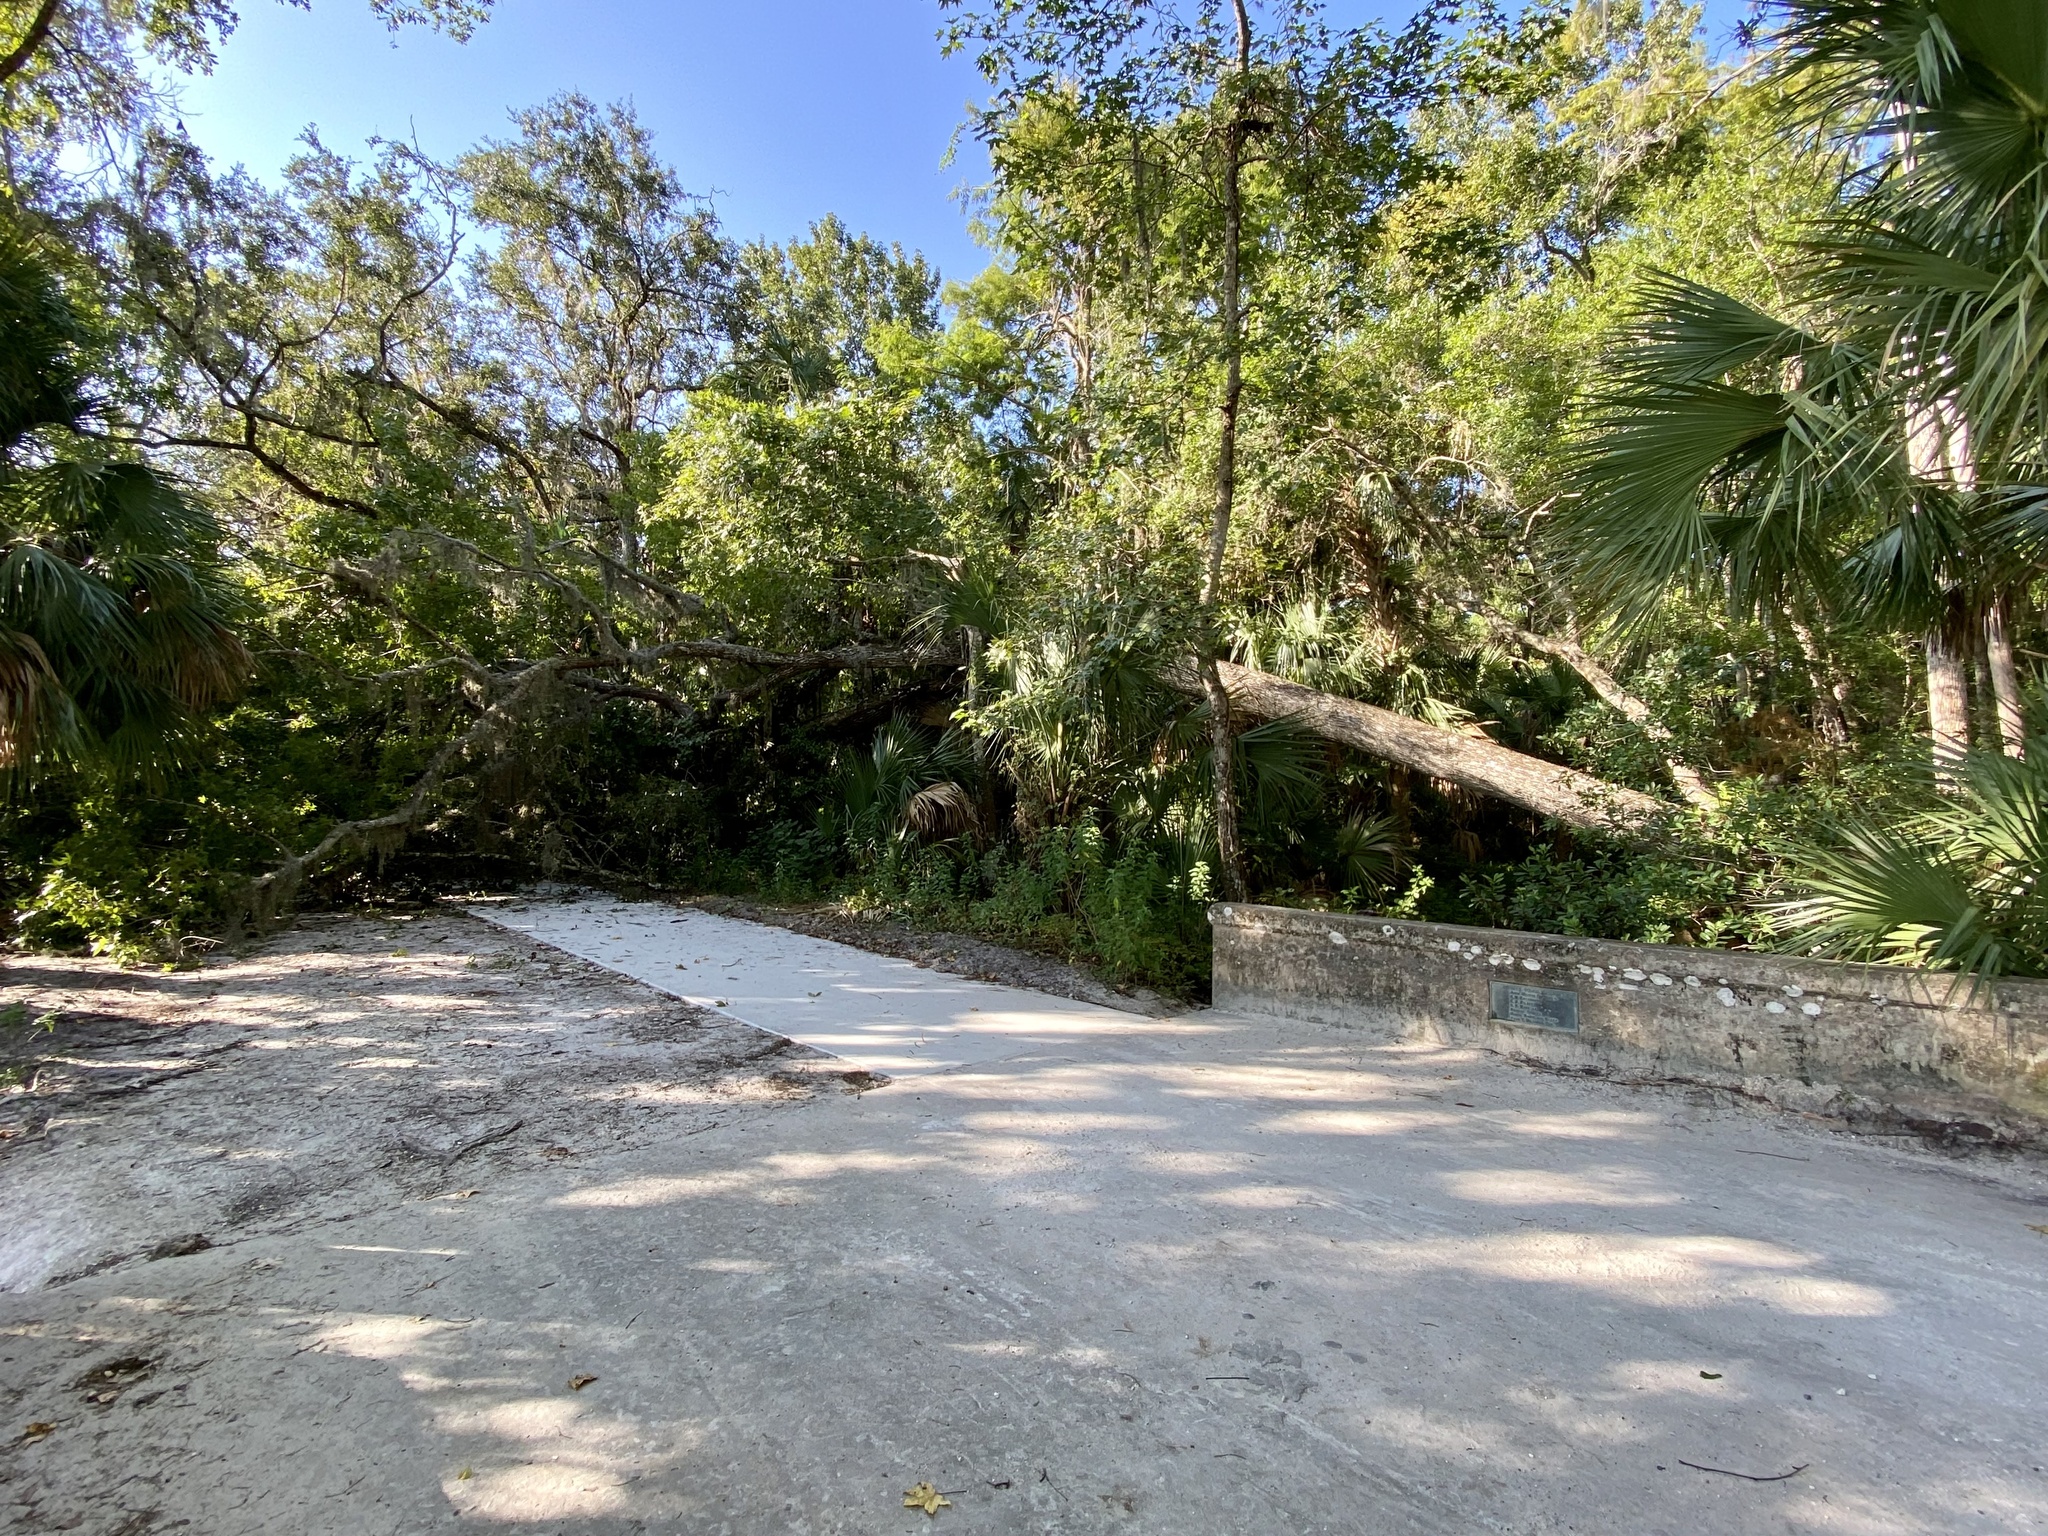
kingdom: Plantae
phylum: Tracheophyta
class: Magnoliopsida
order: Saxifragales
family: Altingiaceae
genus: Liquidambar
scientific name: Liquidambar styraciflua
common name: Sweet gum
